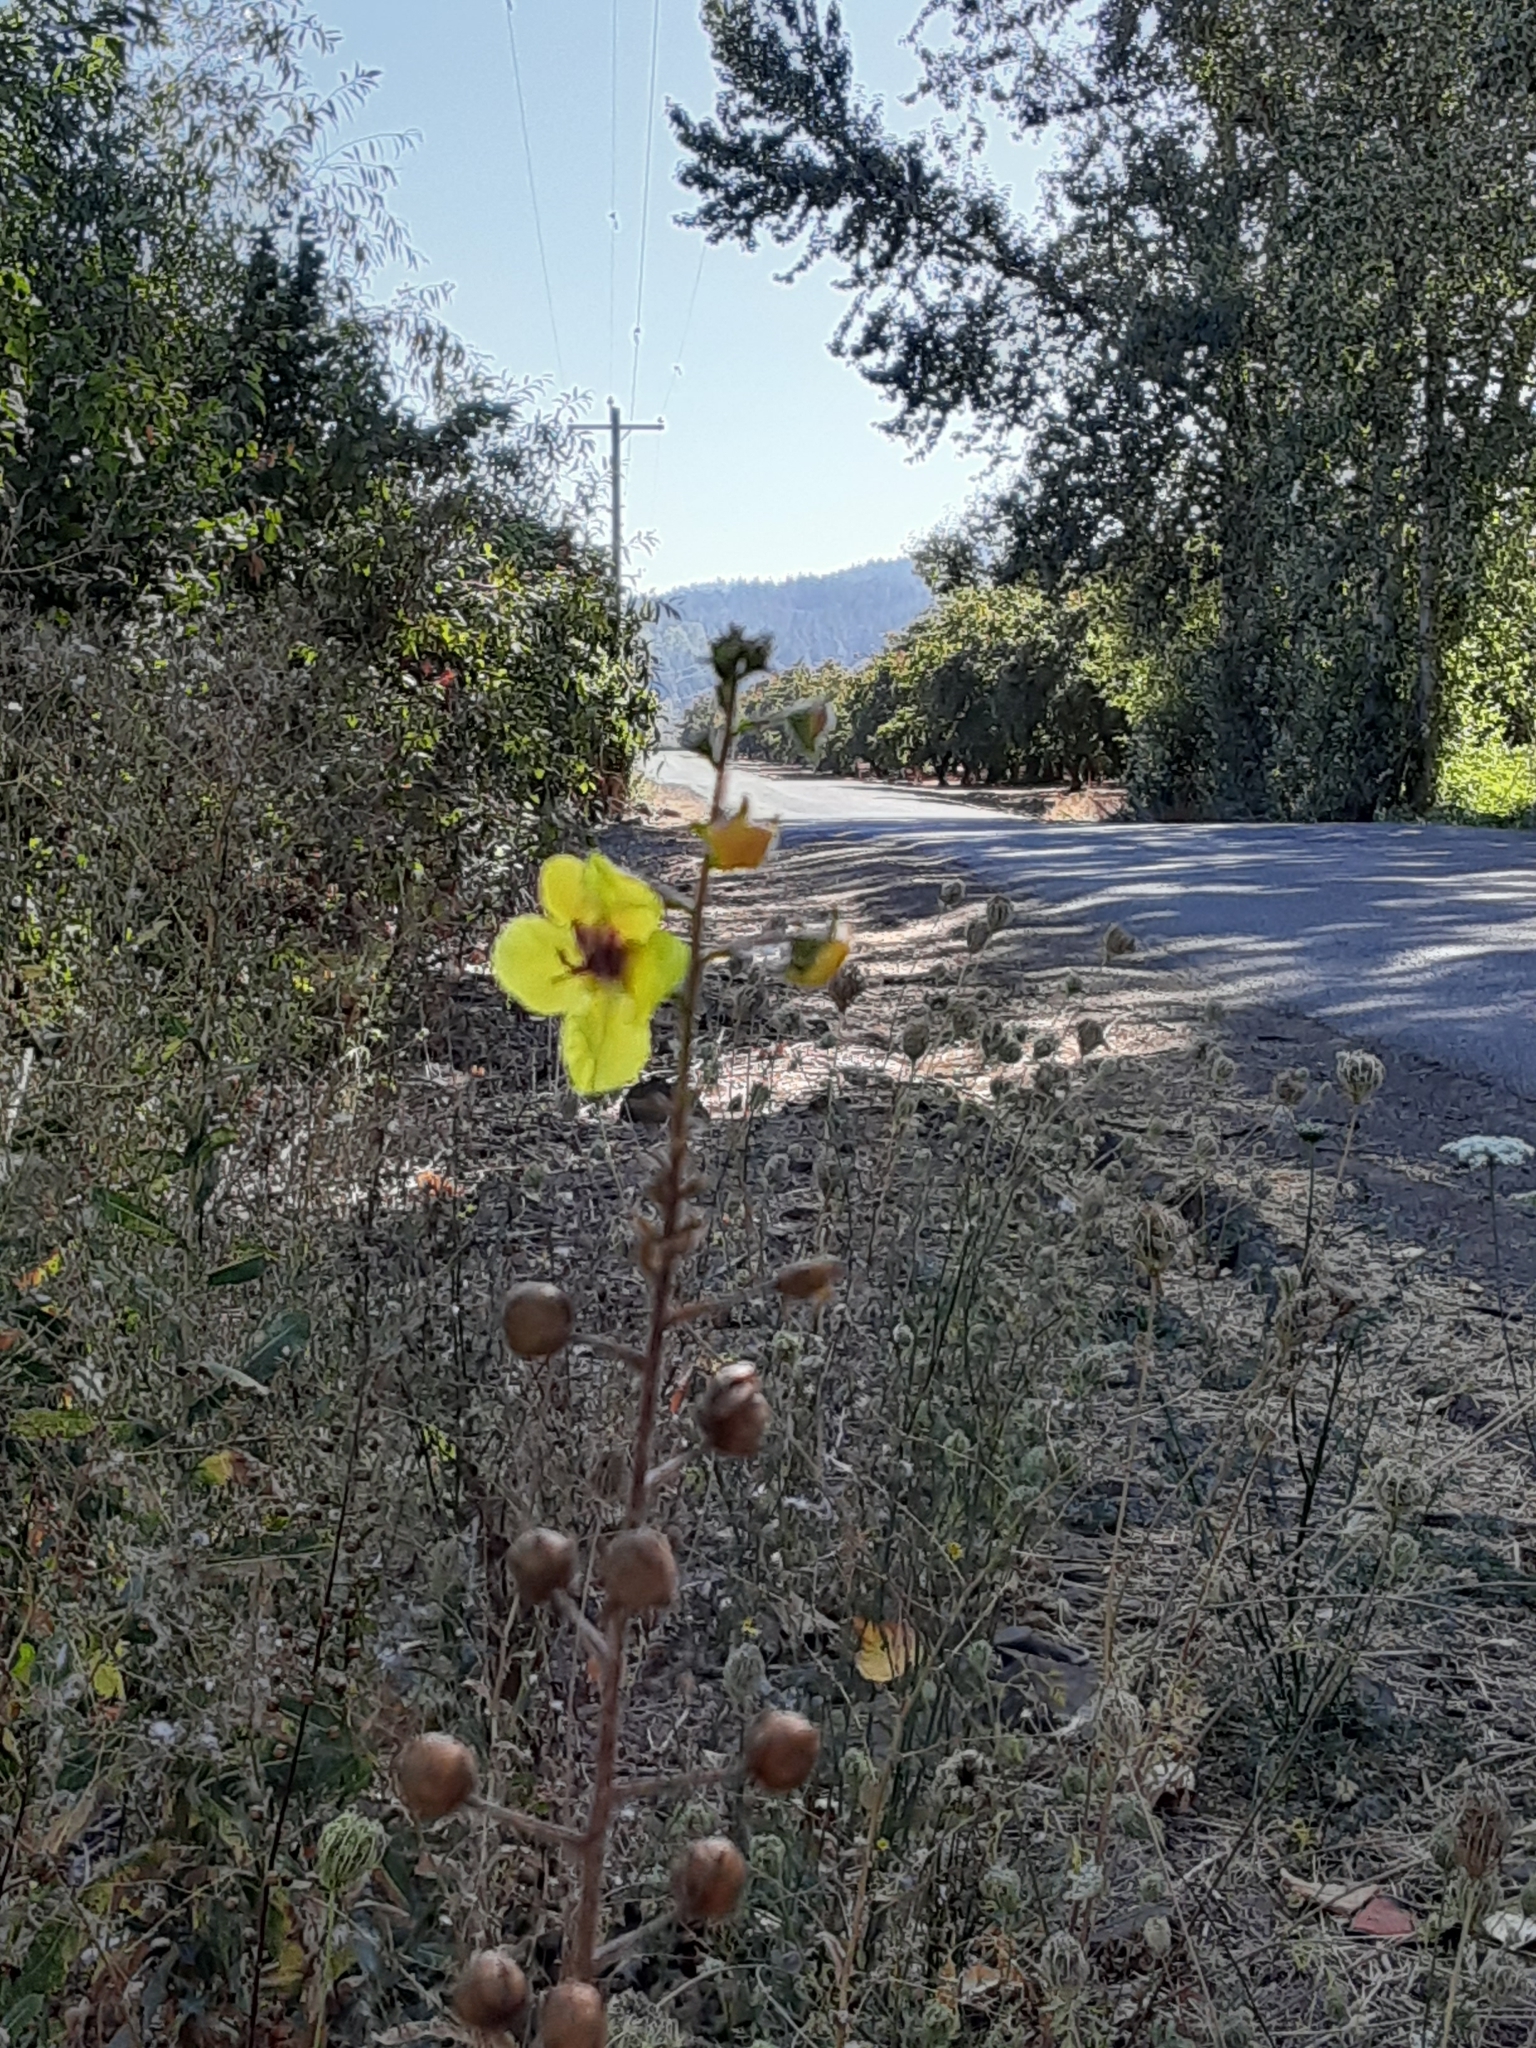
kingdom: Plantae
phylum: Tracheophyta
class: Magnoliopsida
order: Lamiales
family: Scrophulariaceae
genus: Verbascum
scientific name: Verbascum blattaria
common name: Moth mullein
